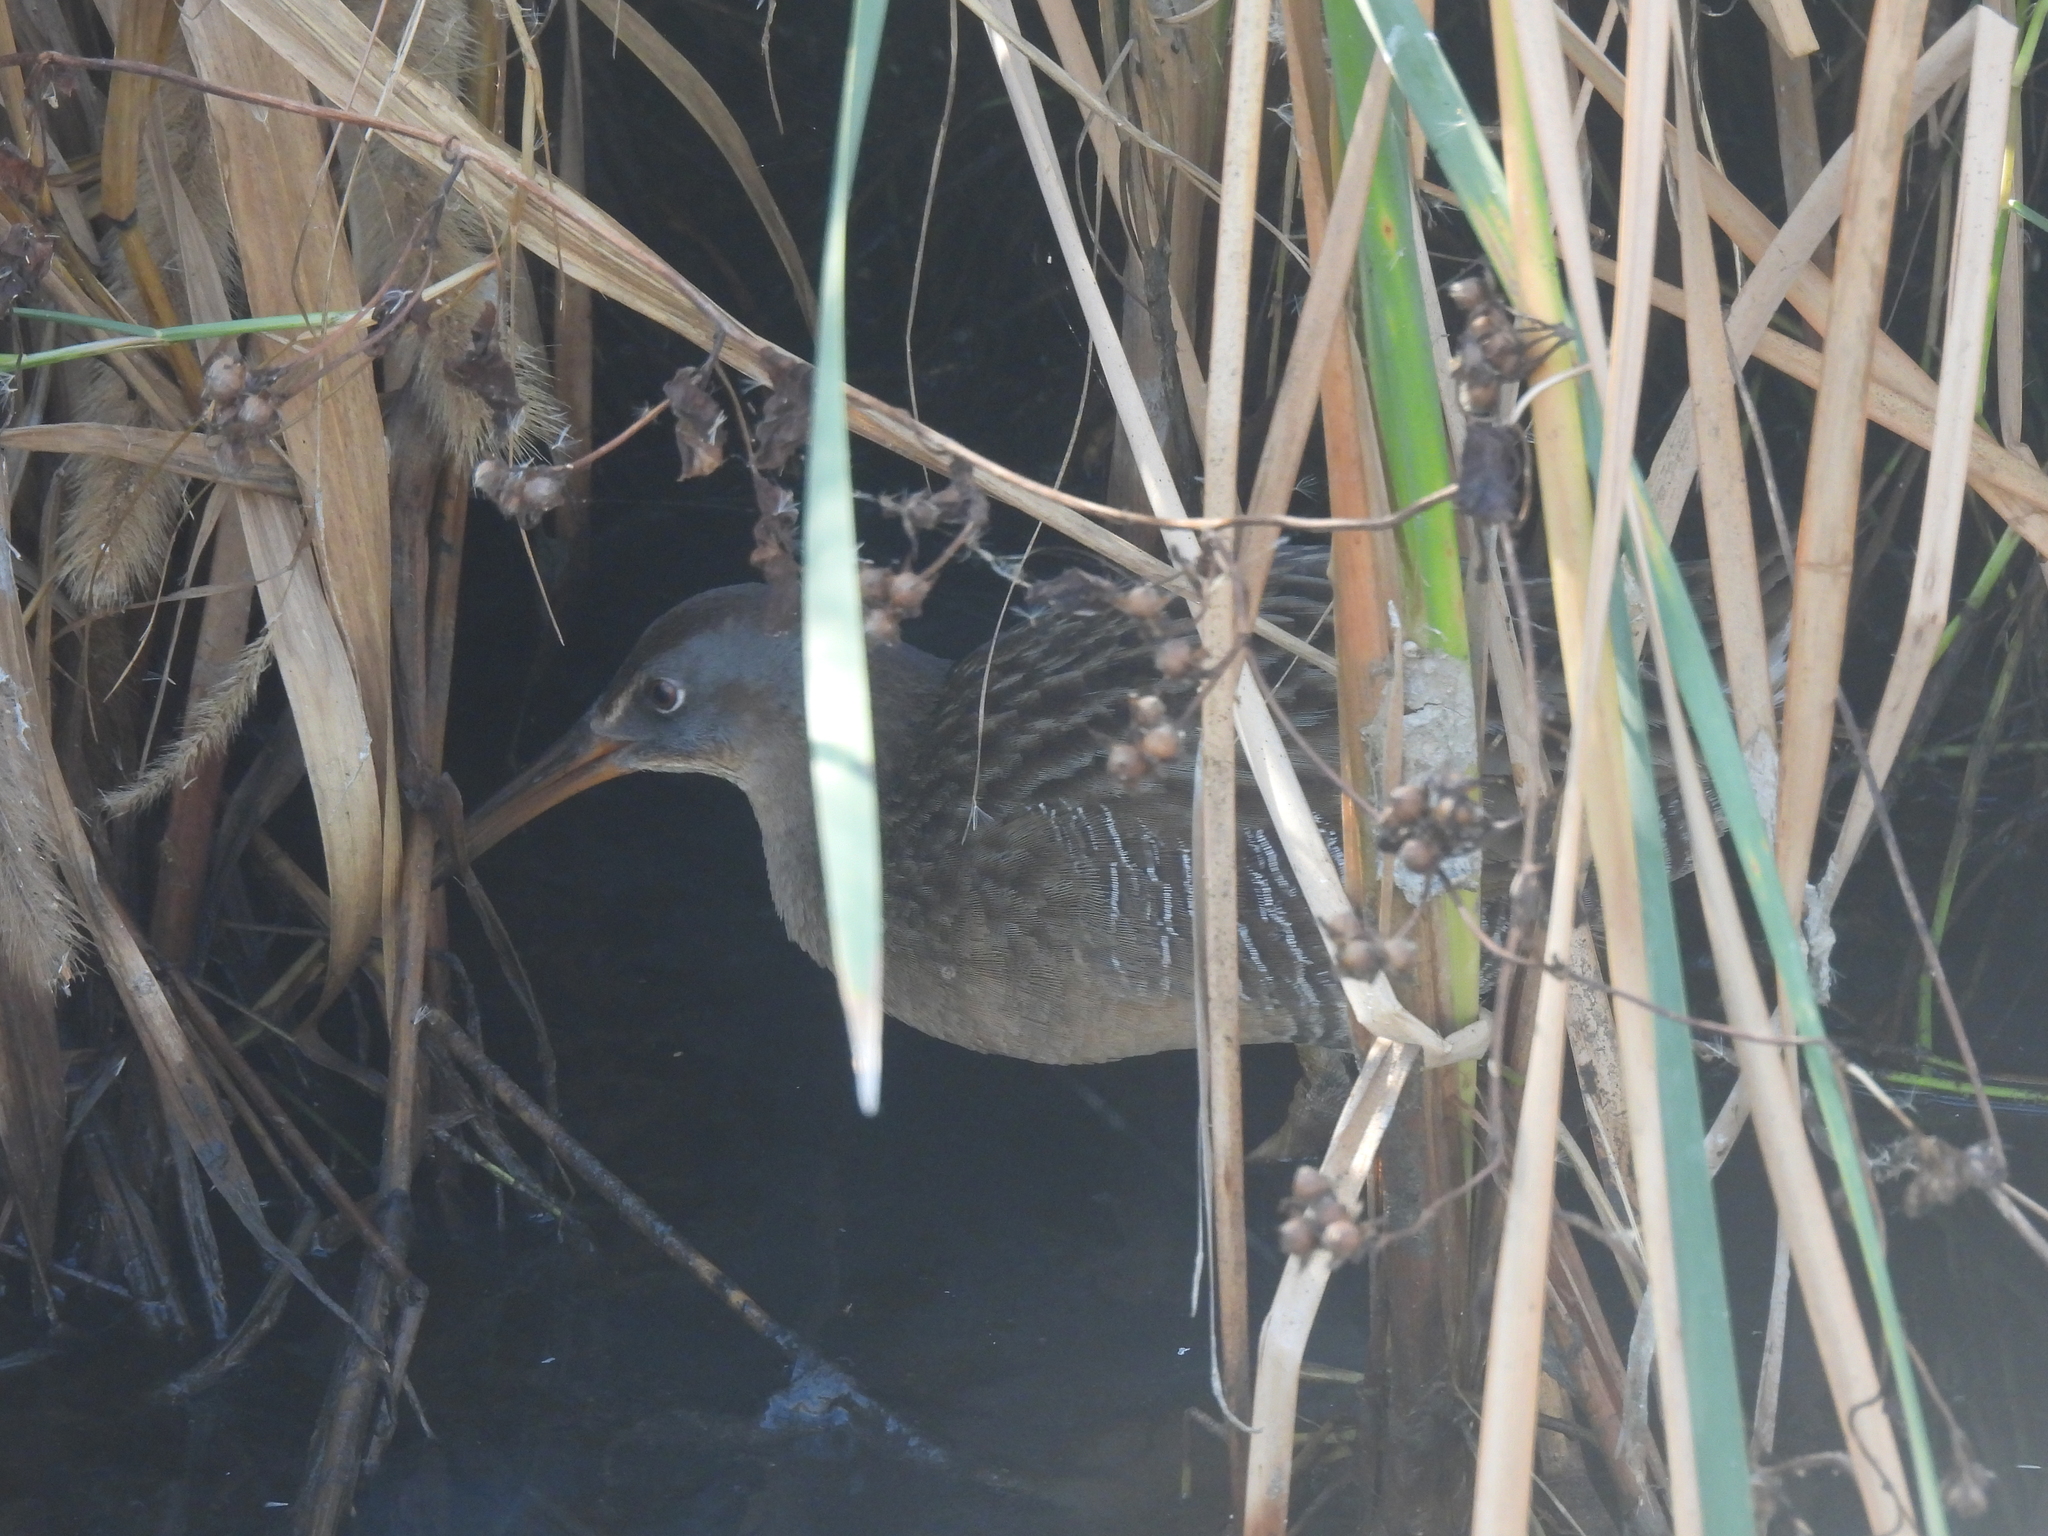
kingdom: Animalia
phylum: Chordata
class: Aves
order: Gruiformes
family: Rallidae
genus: Rallus
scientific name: Rallus crepitans
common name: Clapper rail
